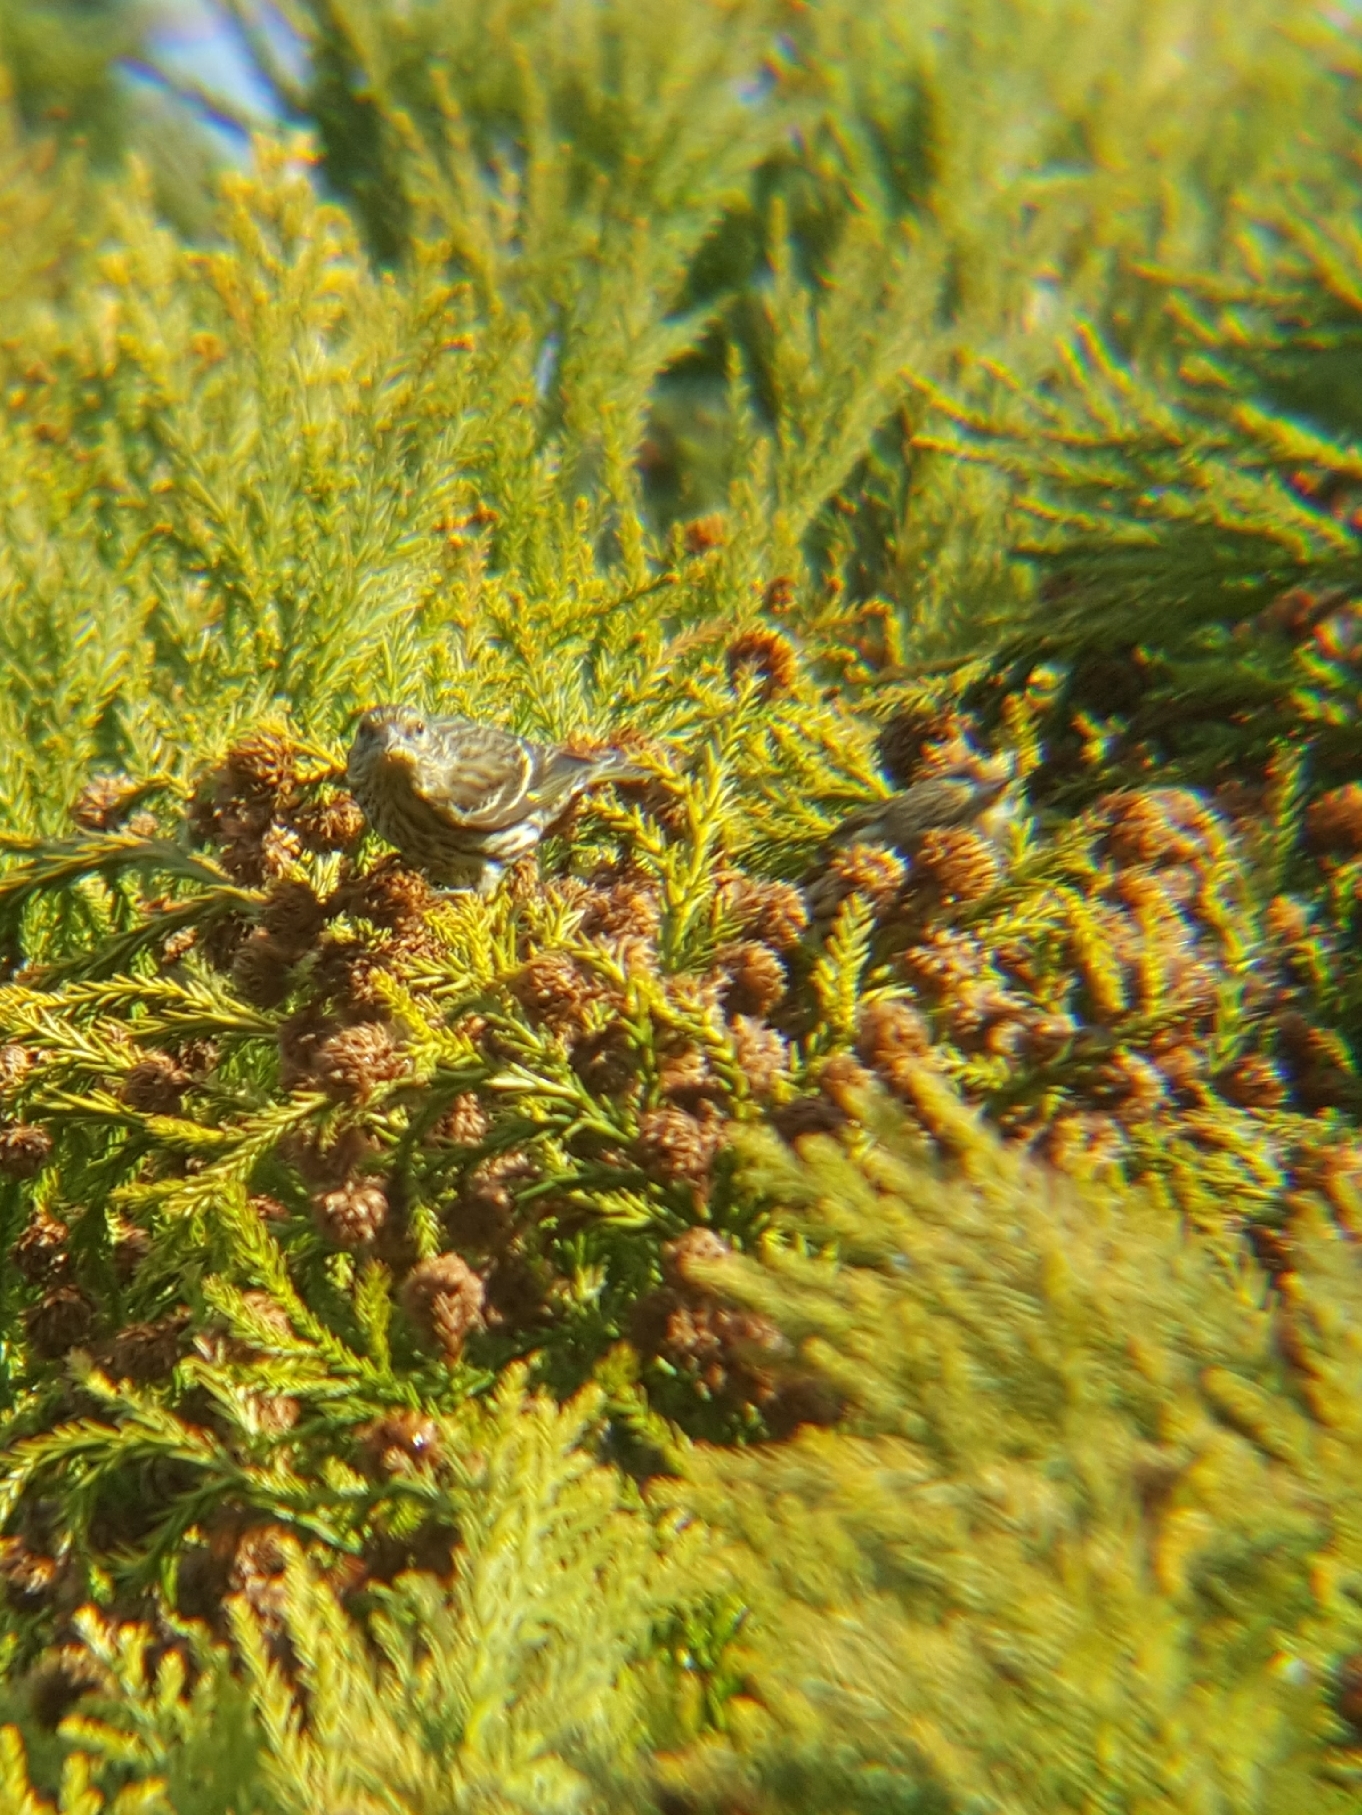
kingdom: Animalia
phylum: Chordata
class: Aves
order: Passeriformes
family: Fringillidae
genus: Spinus
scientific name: Spinus pinus
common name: Pine siskin
